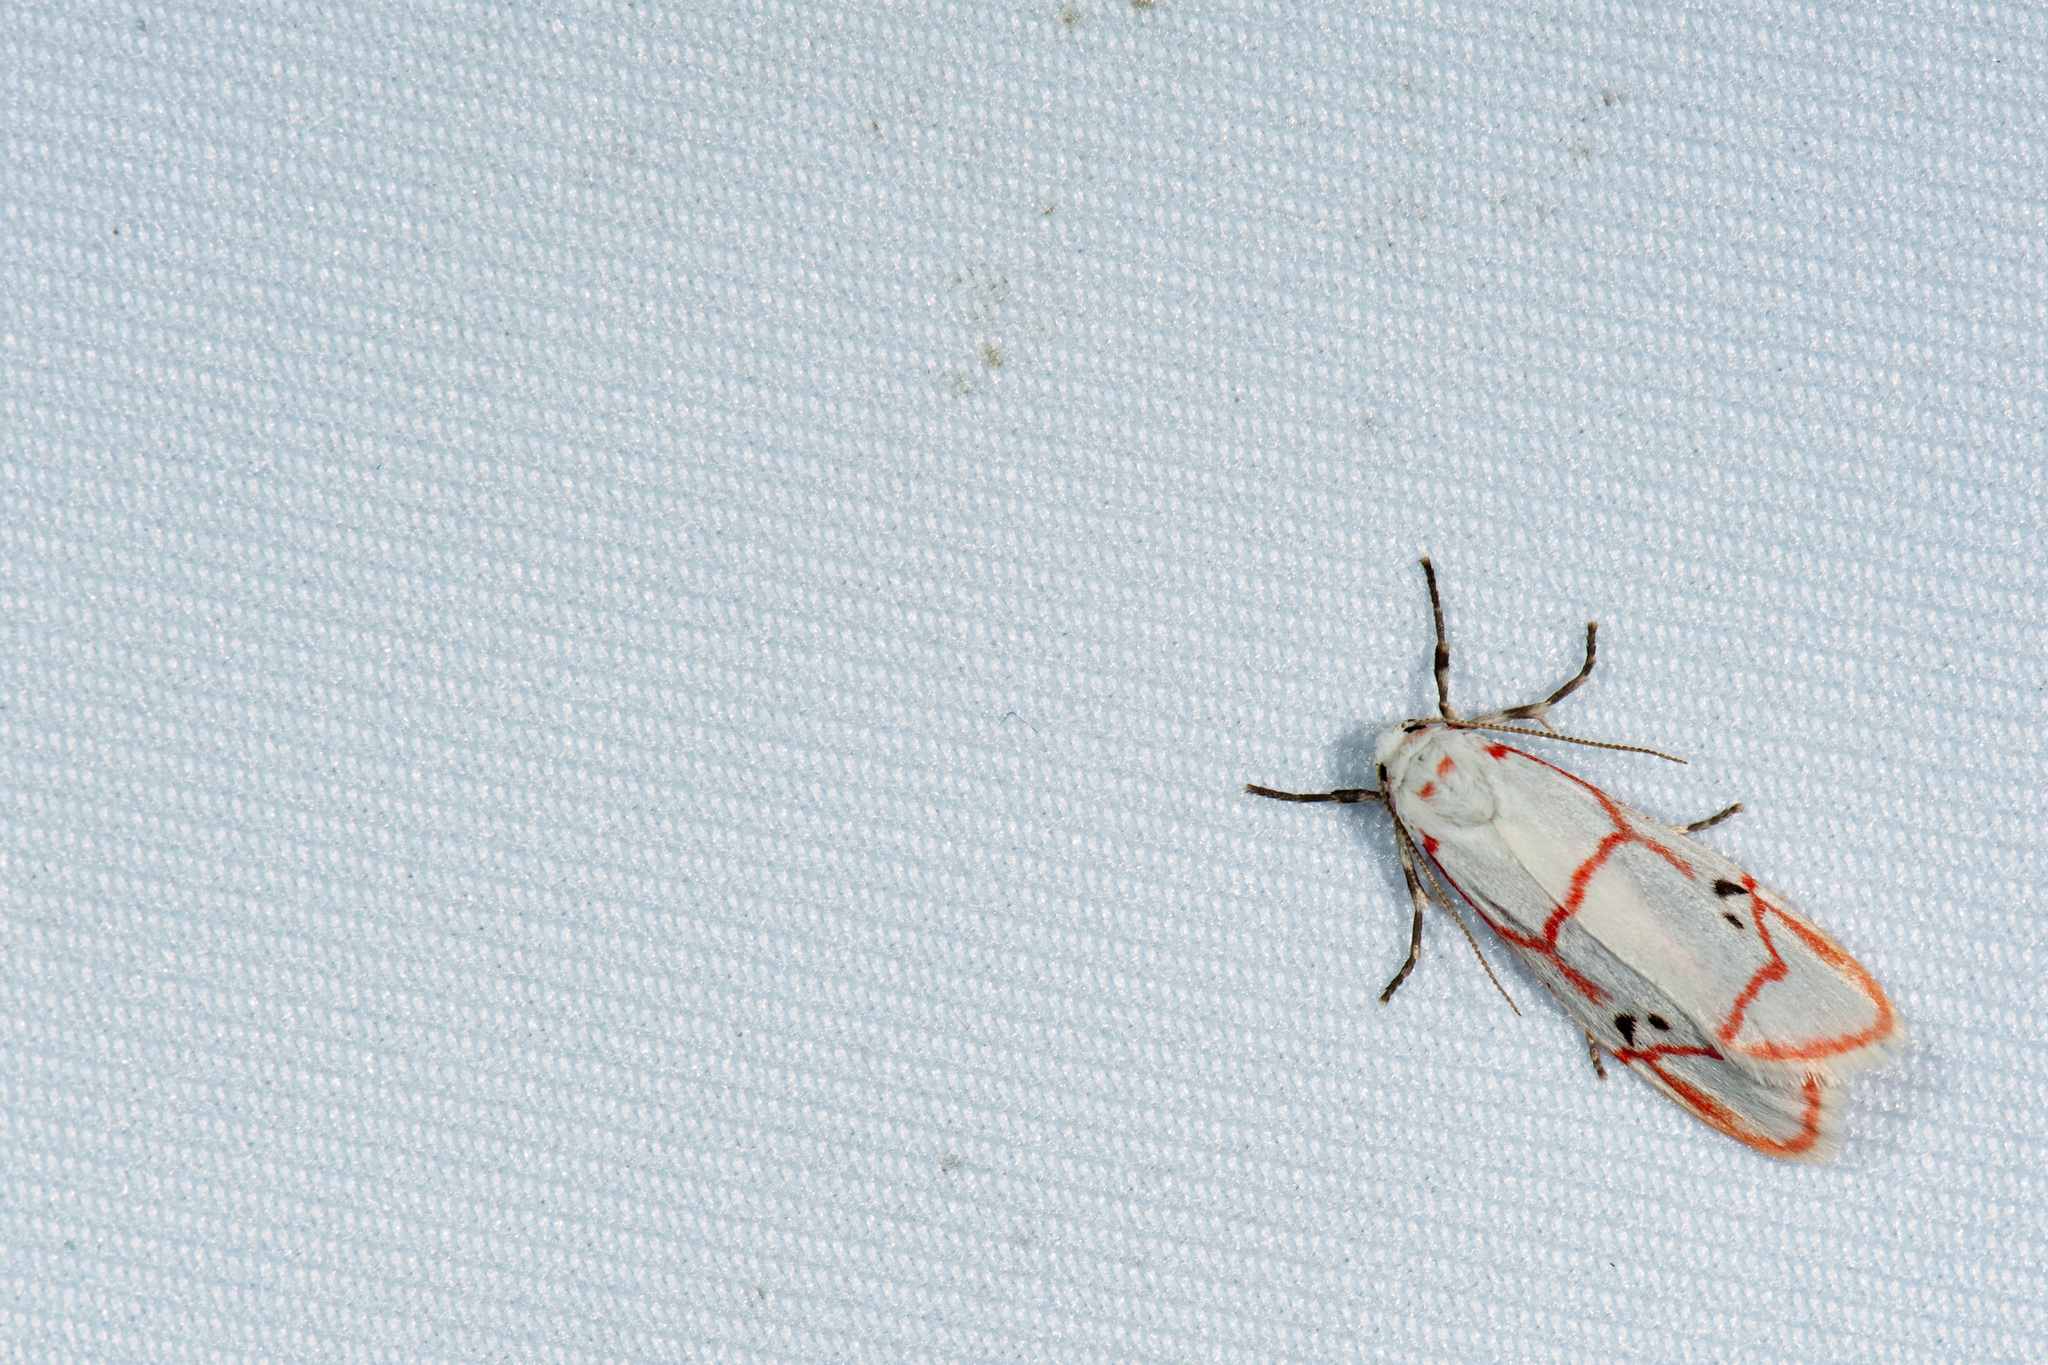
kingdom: Animalia
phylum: Arthropoda
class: Insecta
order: Lepidoptera
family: Erebidae
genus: Cyana
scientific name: Cyana sanguinea
